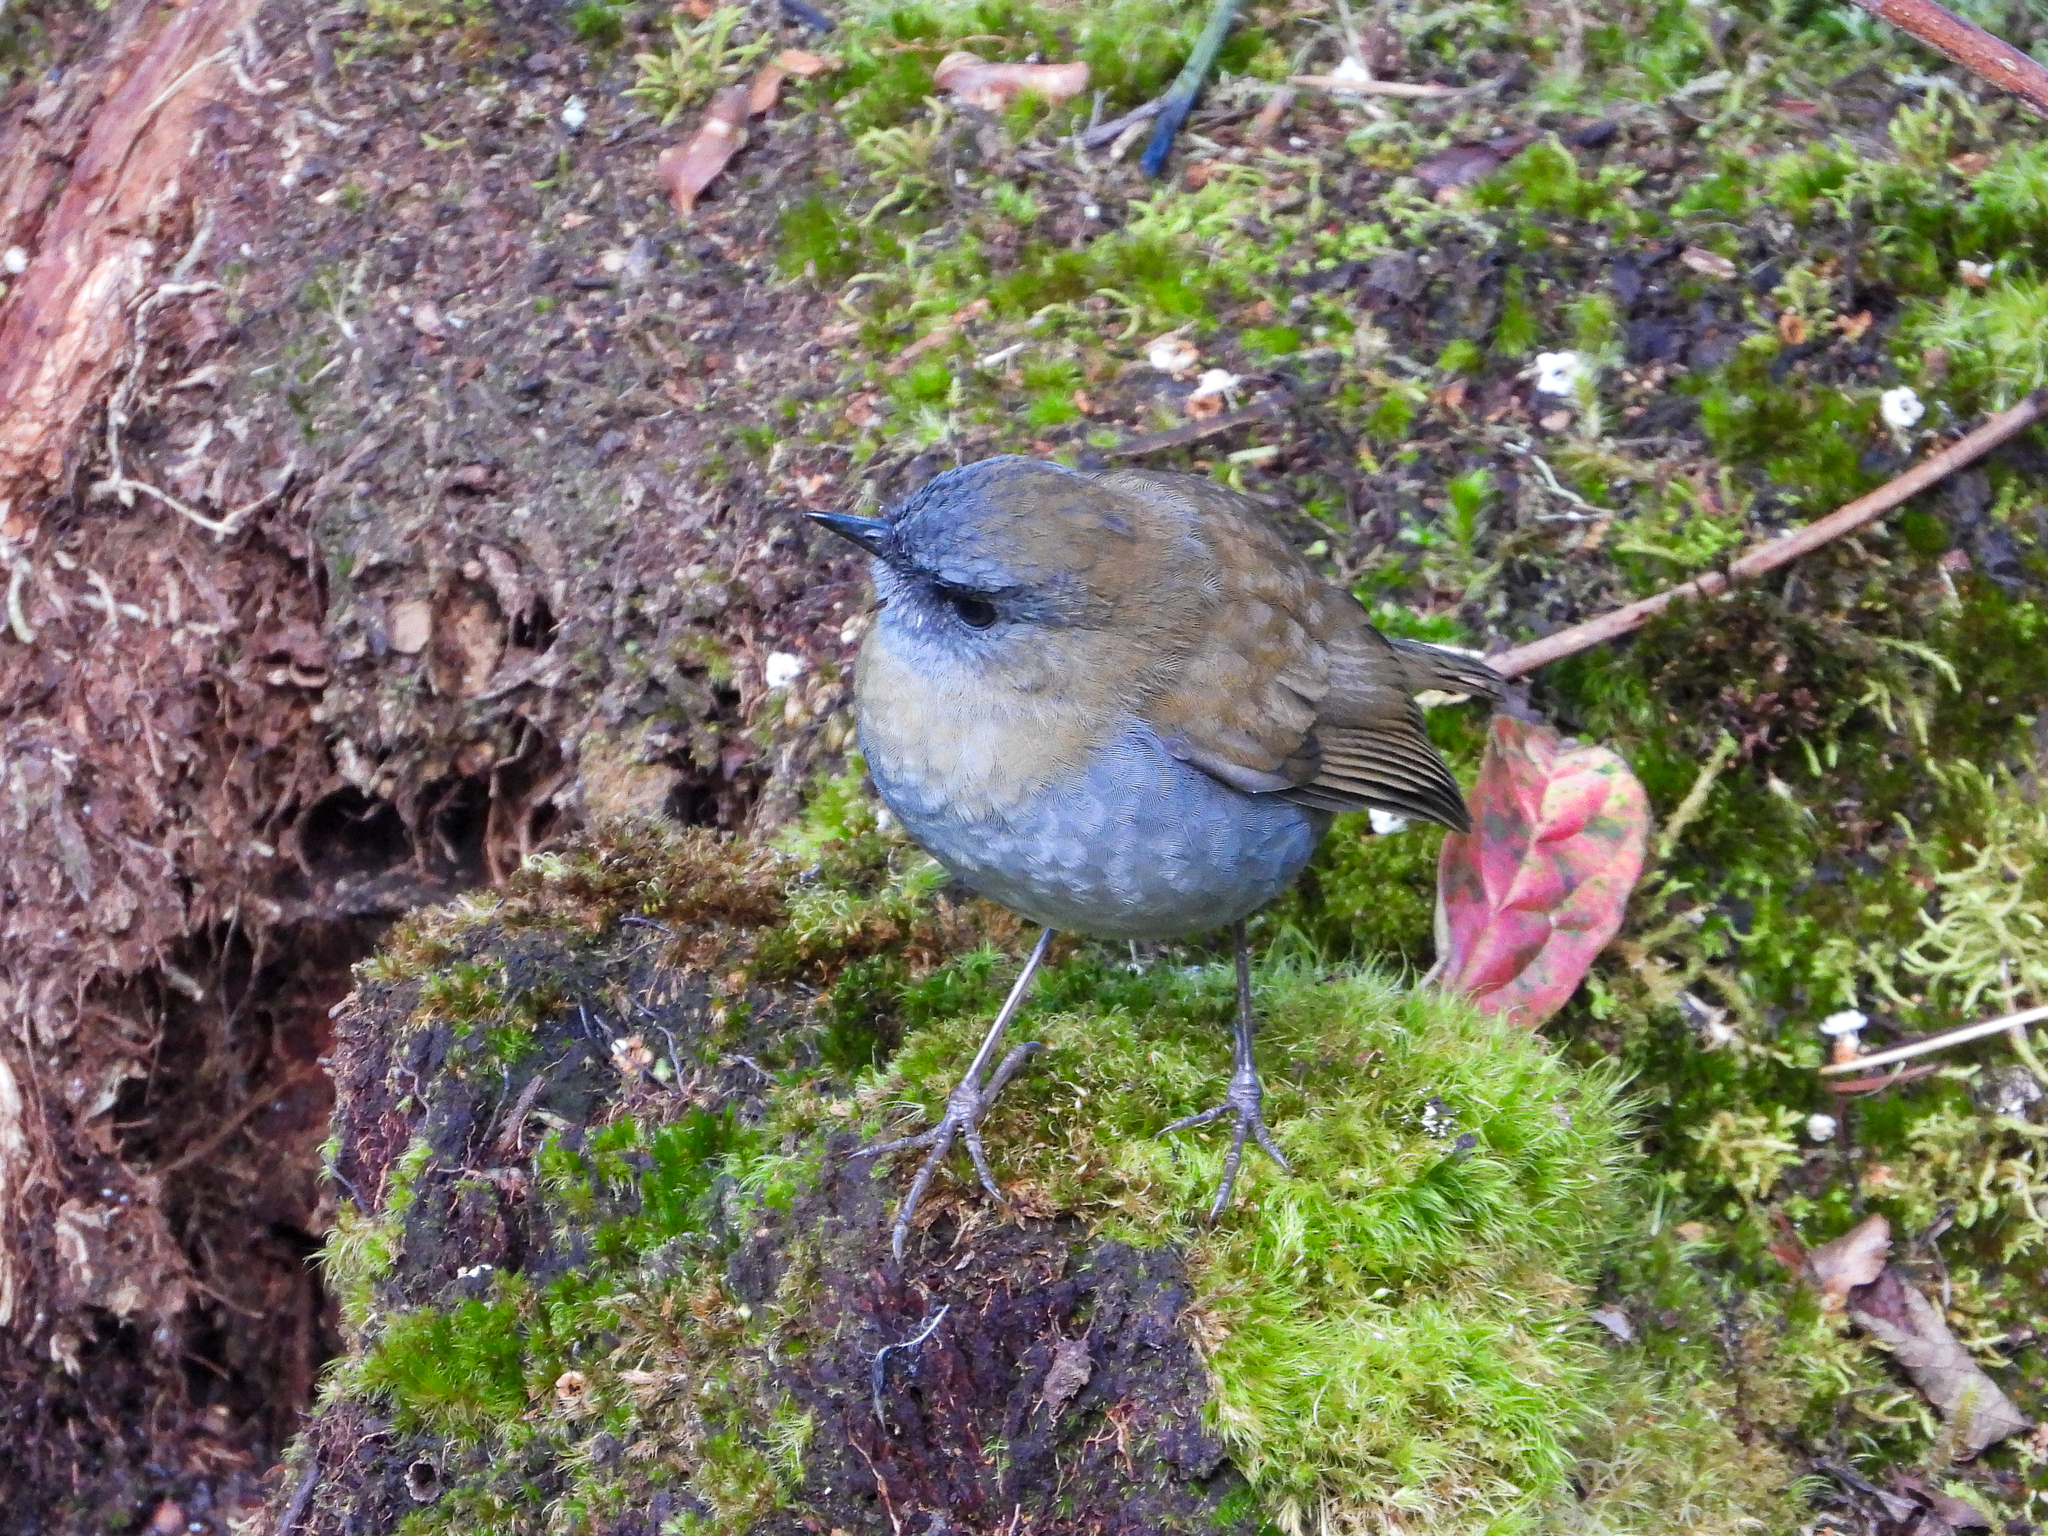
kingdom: Animalia
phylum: Chordata
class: Aves
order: Passeriformes
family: Turdidae
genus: Catharus
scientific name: Catharus gracilirostris
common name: Black-billed nightingale-thrush
